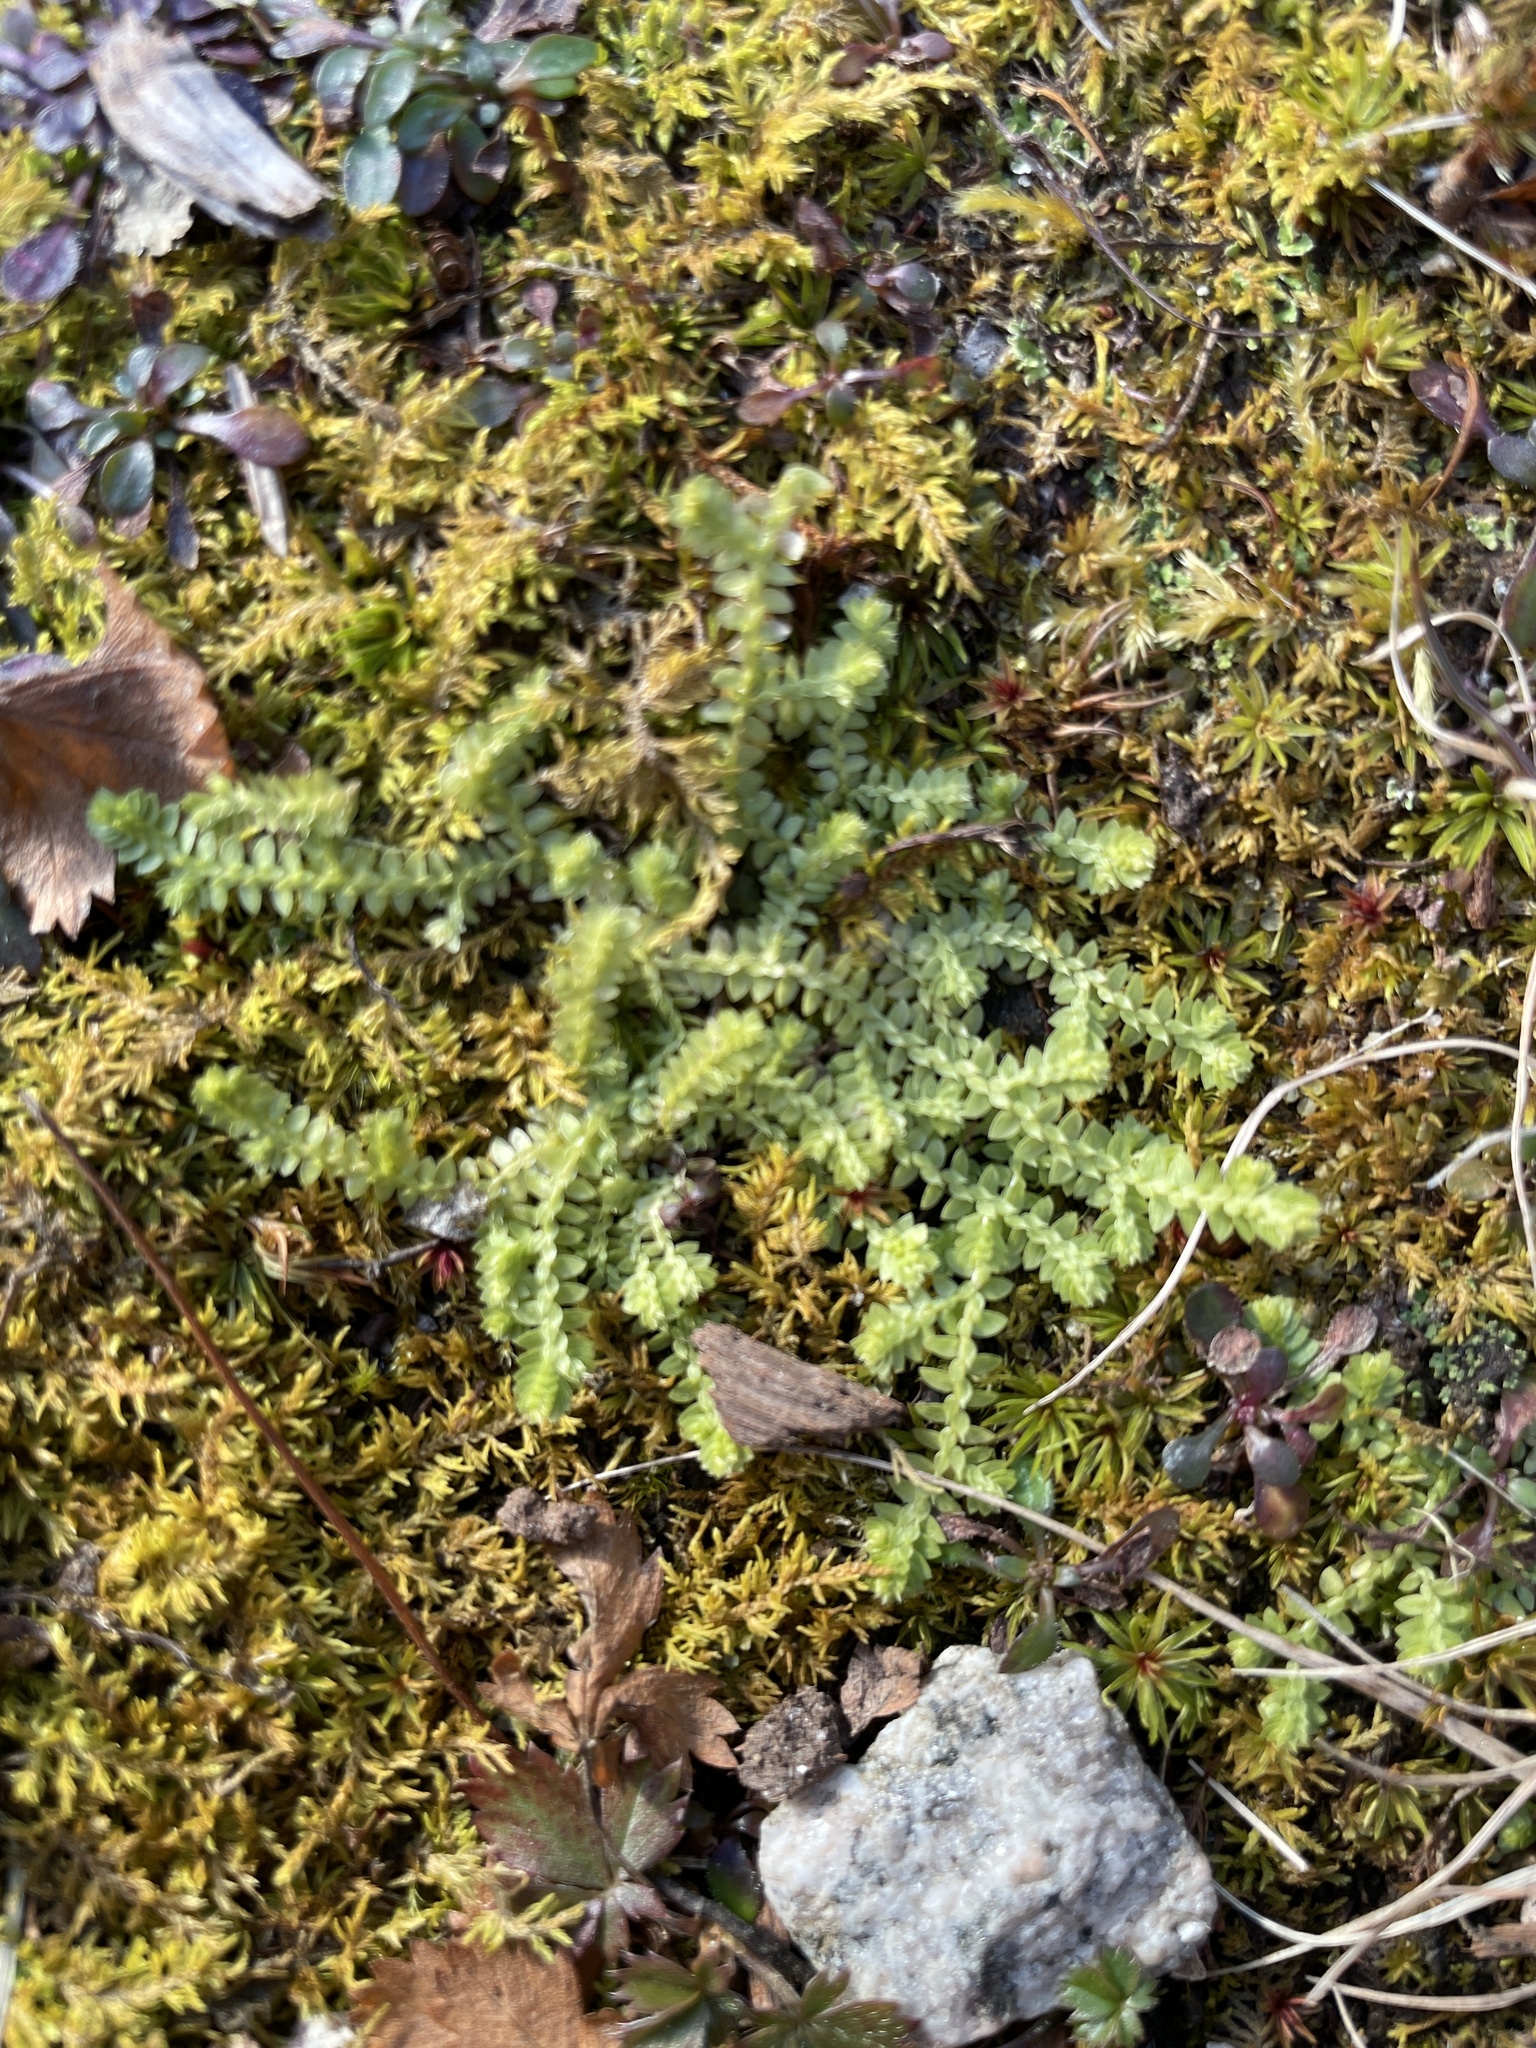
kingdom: Plantae
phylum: Tracheophyta
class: Lycopodiopsida
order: Selaginellales
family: Selaginellaceae
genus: Selaginella
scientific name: Selaginella apoda
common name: Creeping spikemoss
